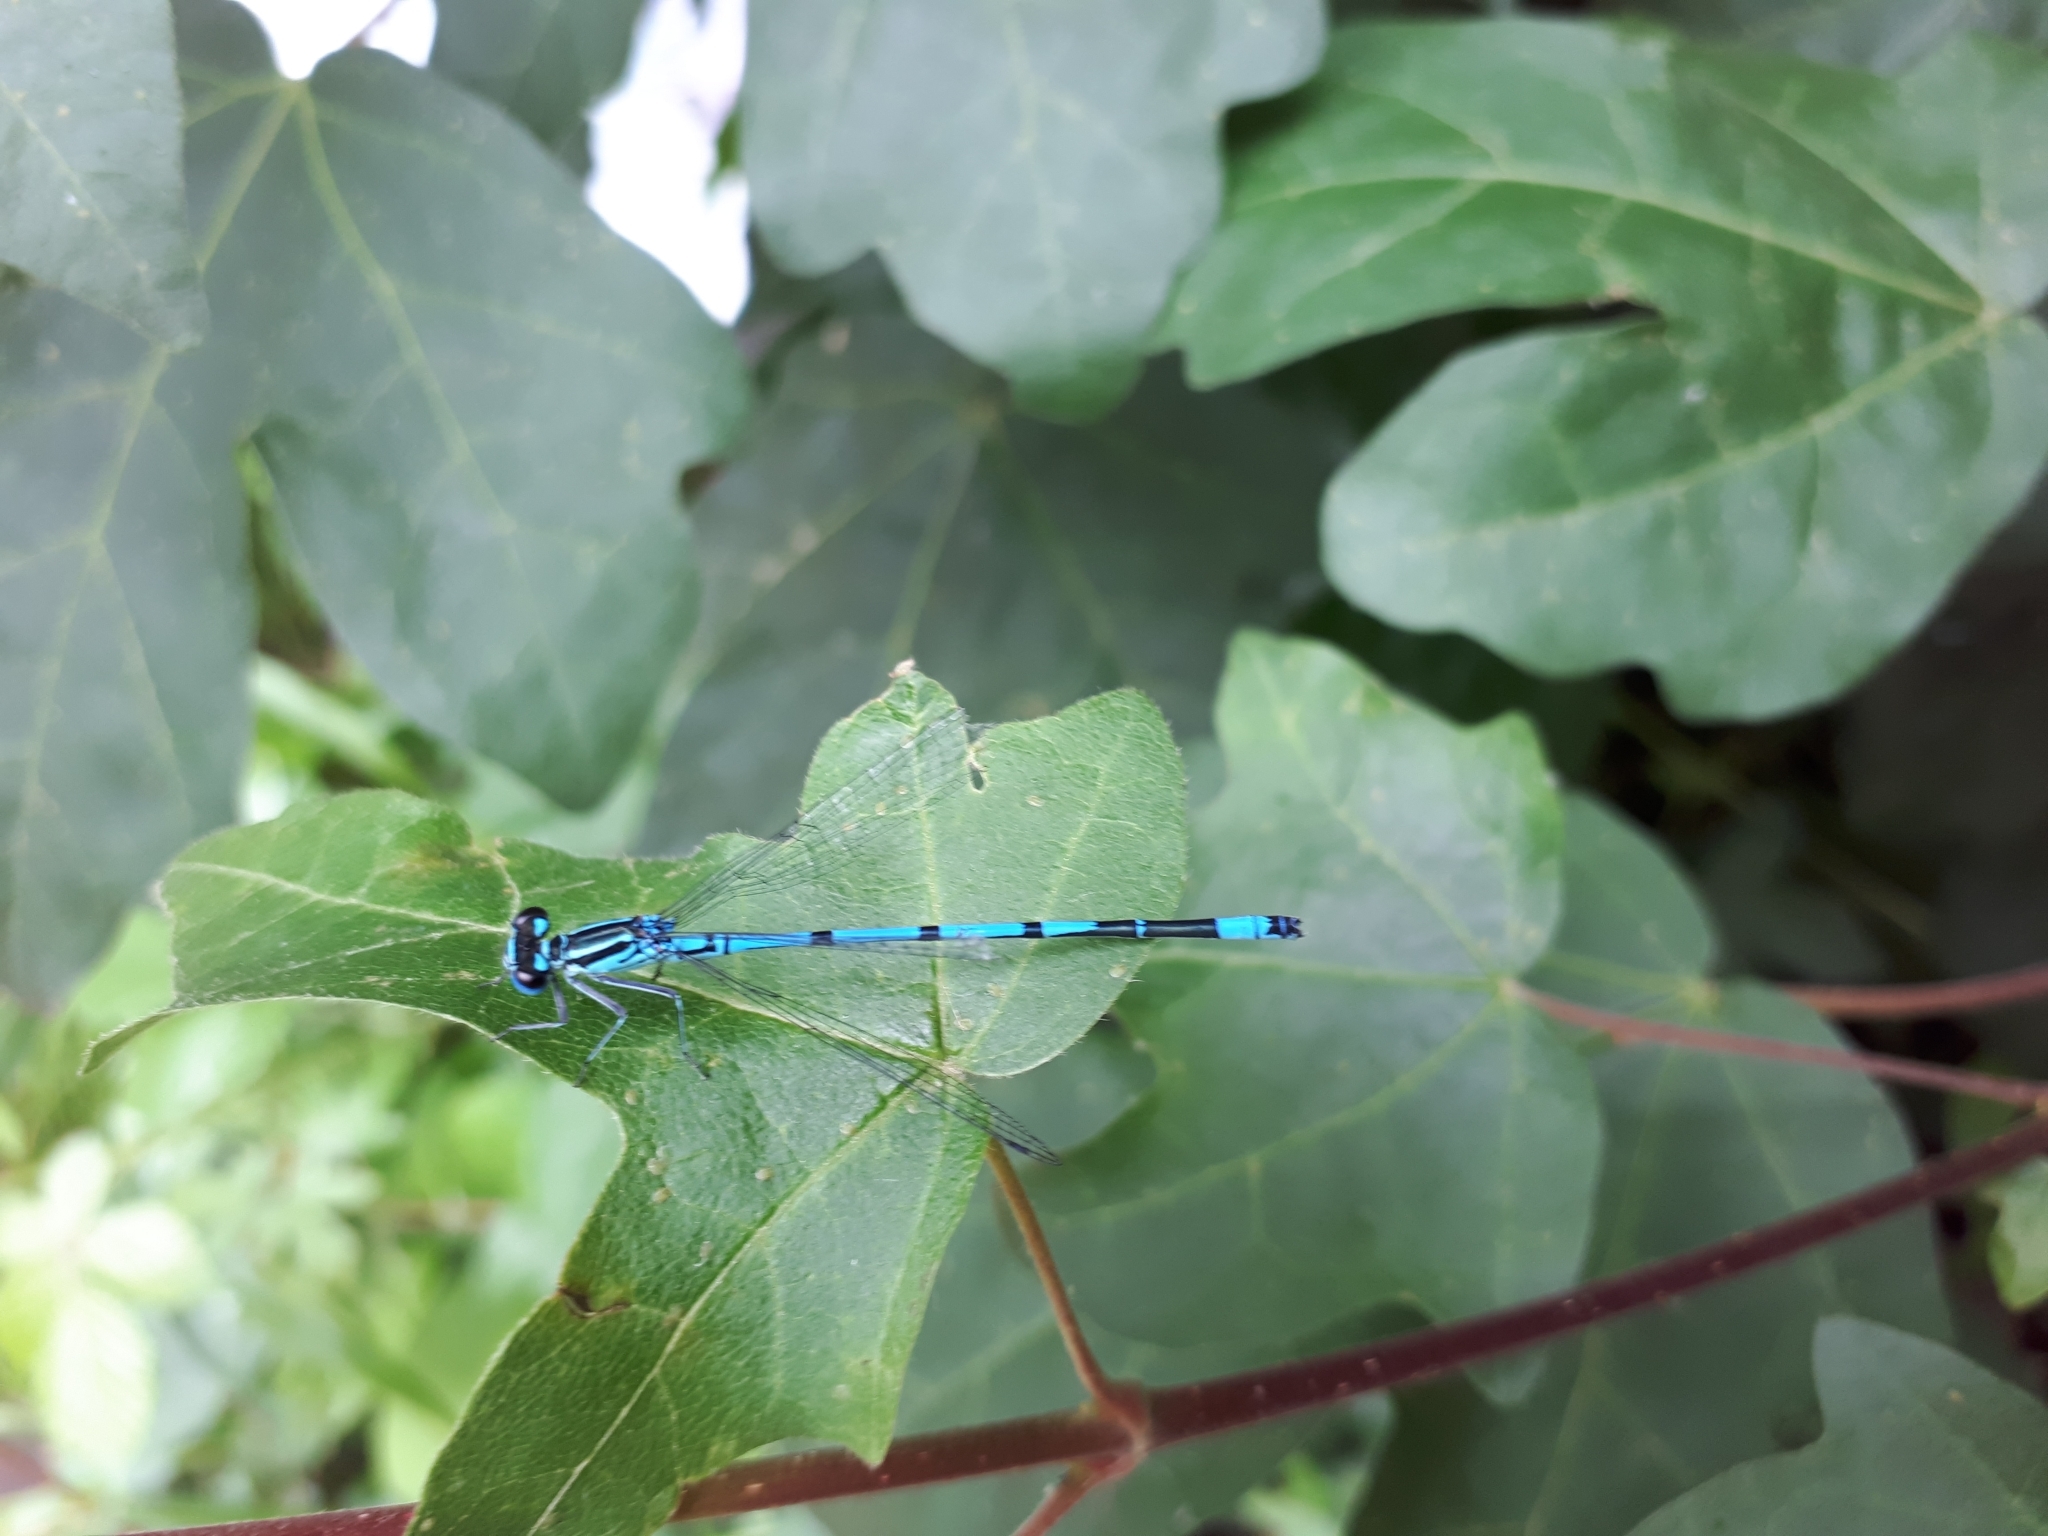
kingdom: Animalia
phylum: Arthropoda
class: Insecta
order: Odonata
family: Coenagrionidae
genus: Coenagrion
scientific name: Coenagrion puella
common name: Azure damselfly
